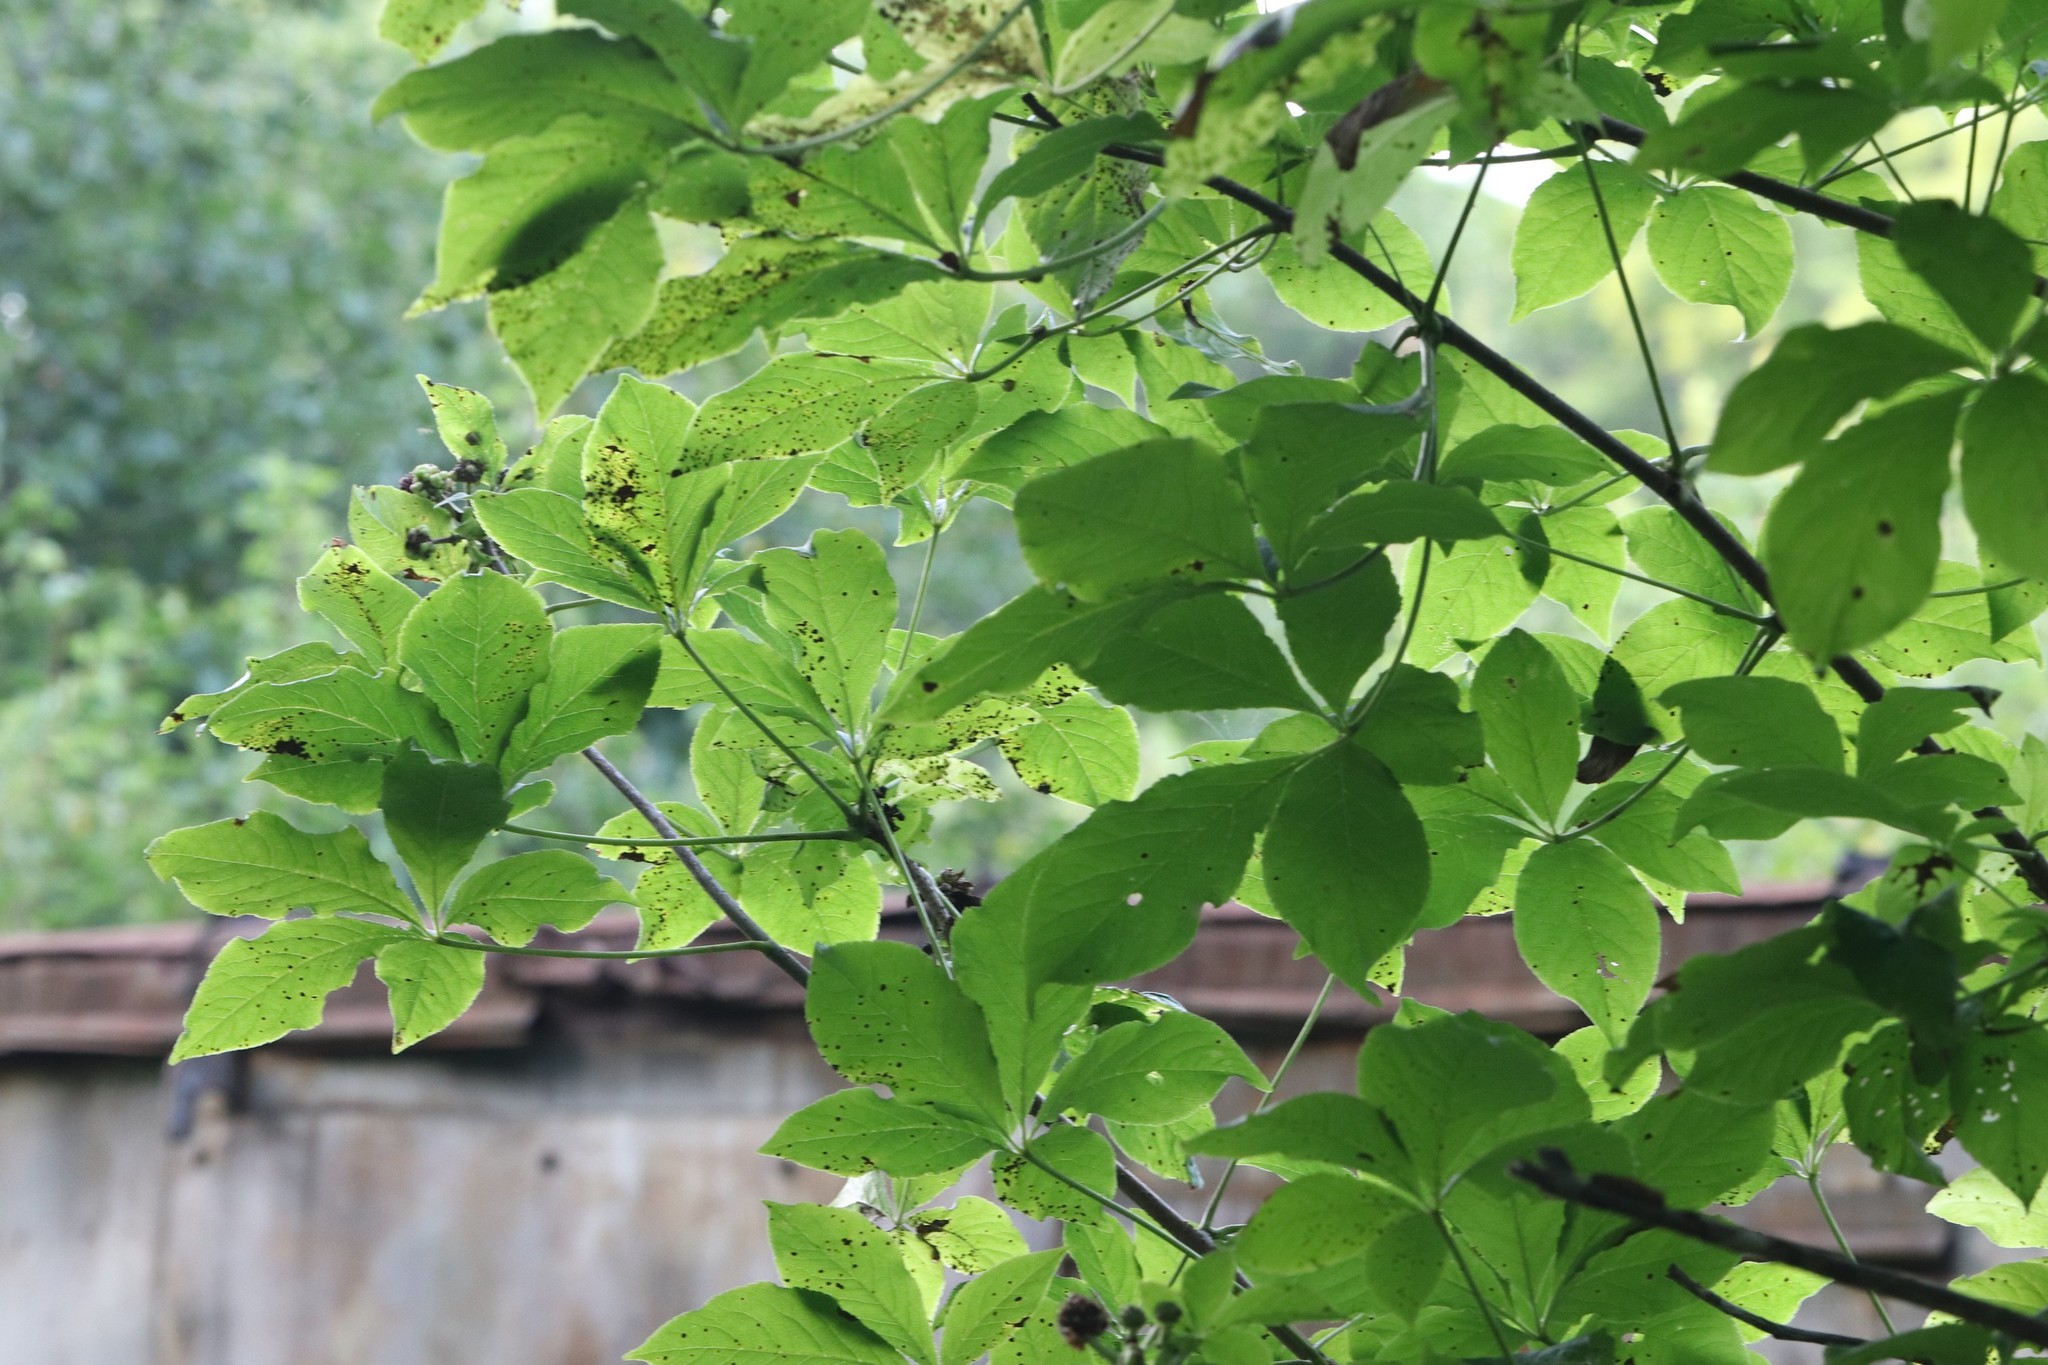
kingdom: Plantae
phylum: Tracheophyta
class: Magnoliopsida
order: Apiales
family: Araliaceae
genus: Eleutherococcus
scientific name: Eleutherococcus sessiliflorus
